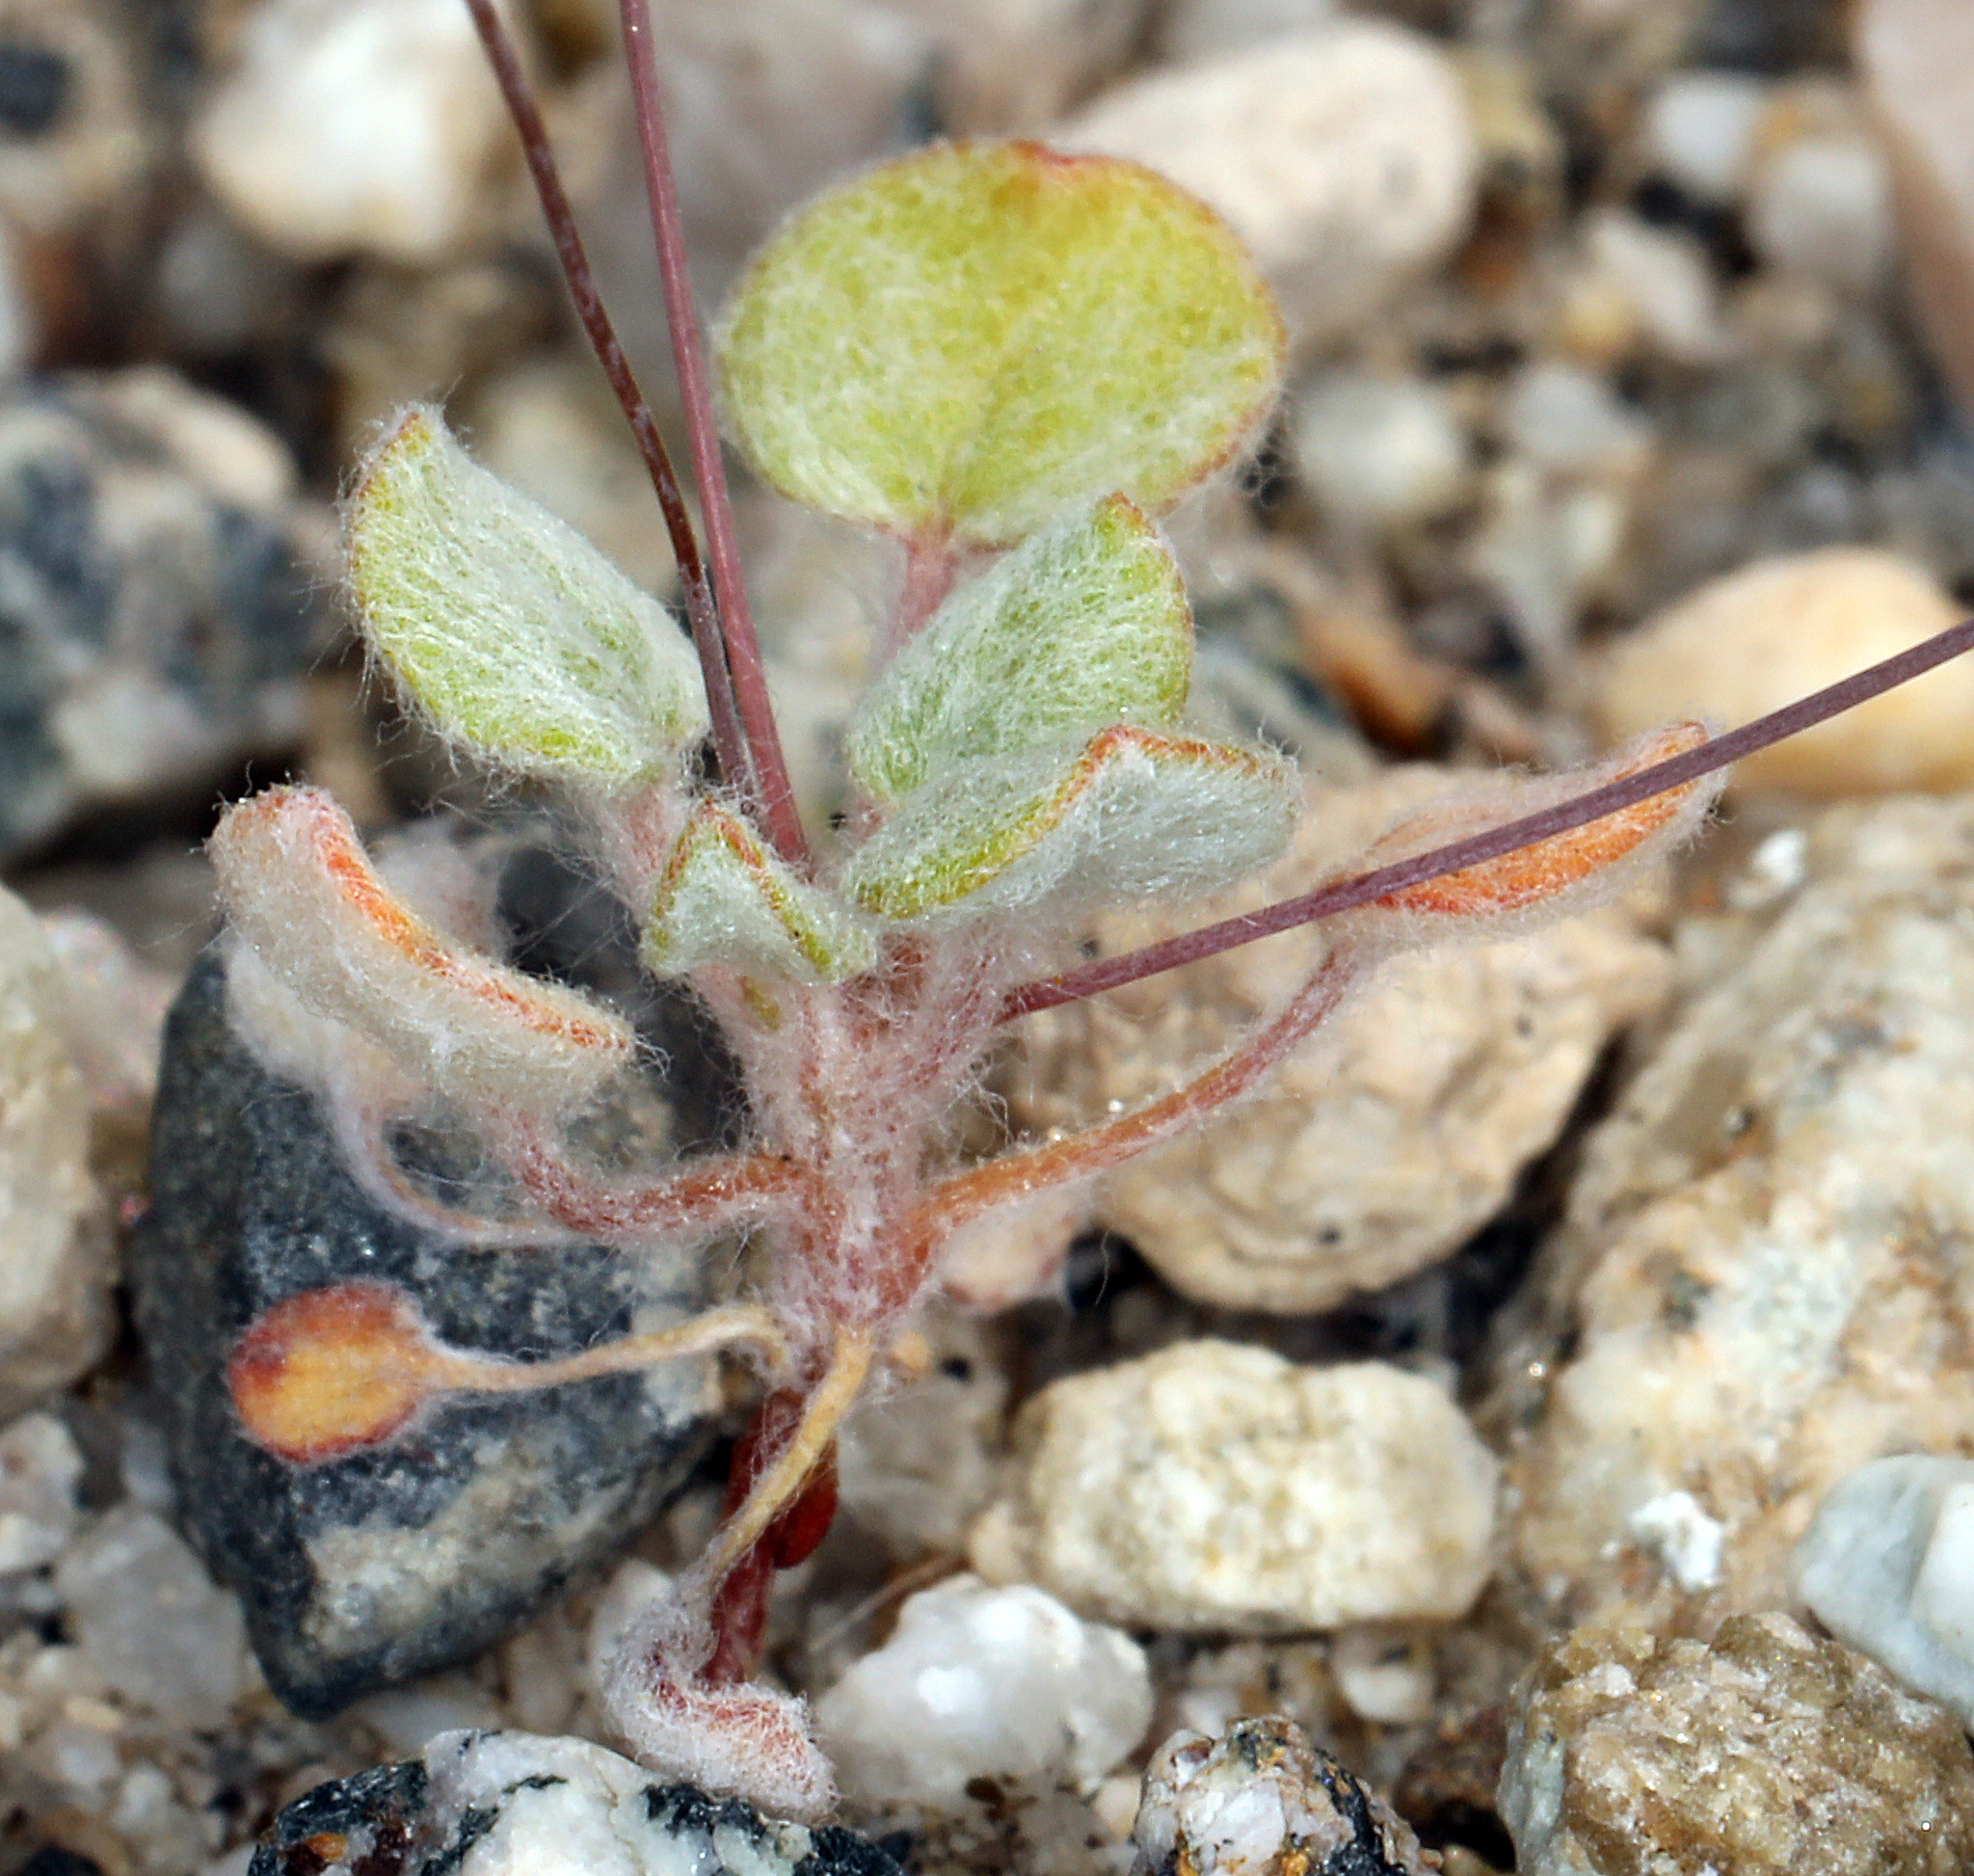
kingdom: Plantae
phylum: Tracheophyta
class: Magnoliopsida
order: Caryophyllales
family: Polygonaceae
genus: Eriogonum
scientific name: Eriogonum pusillum
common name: Yellow turbans
